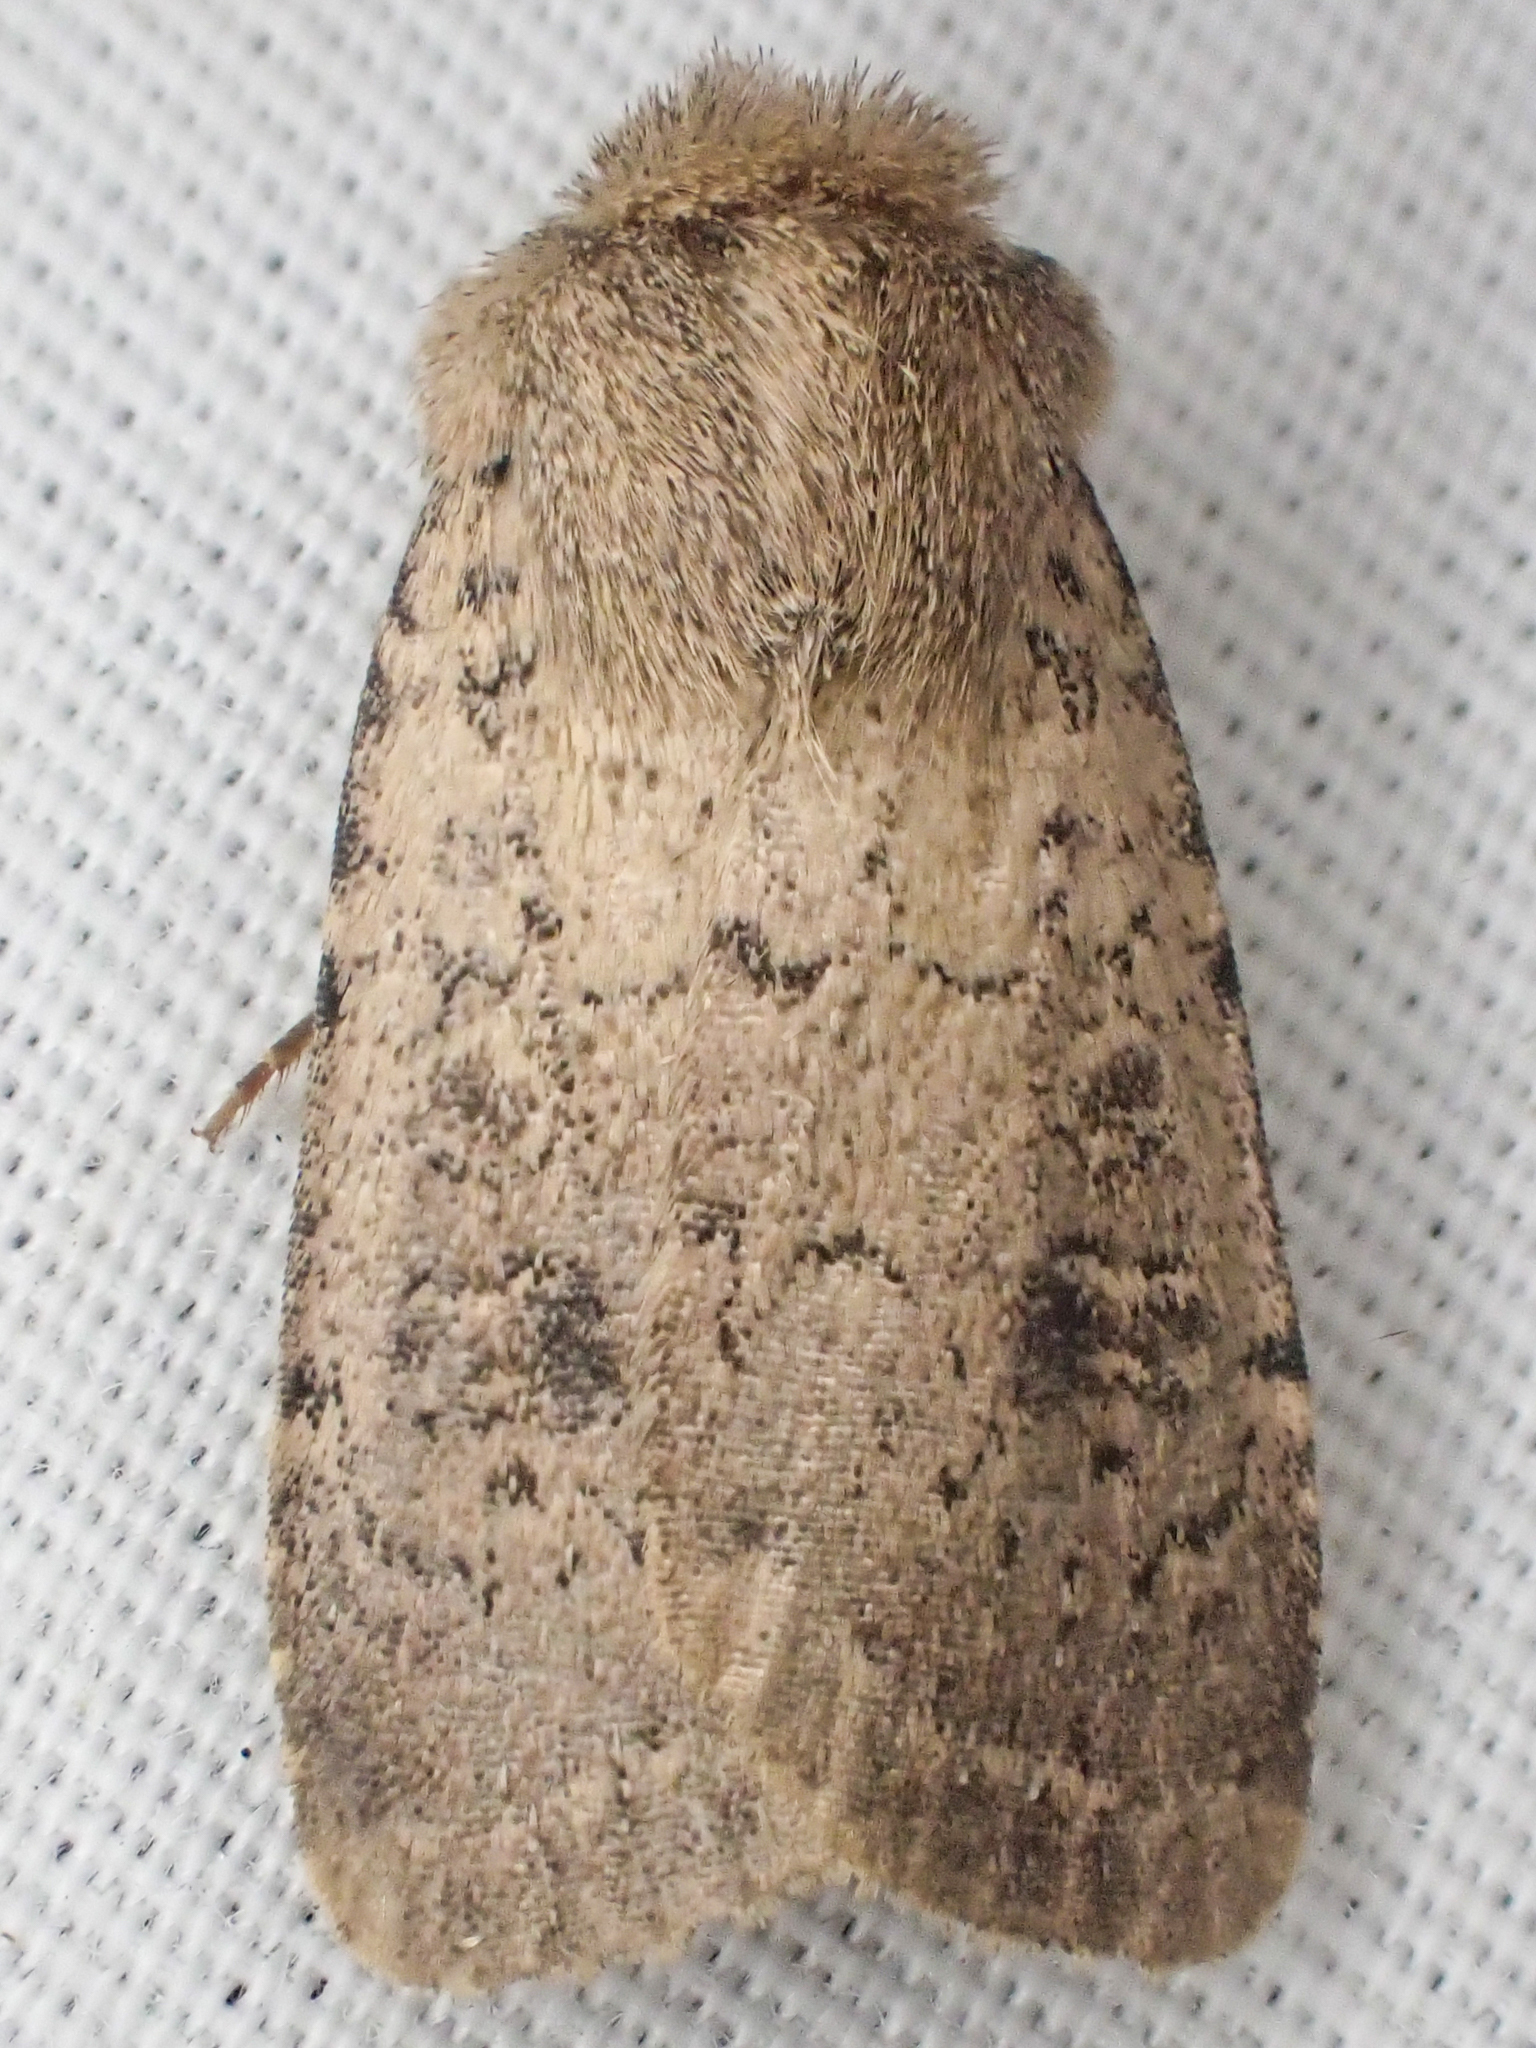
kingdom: Animalia
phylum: Arthropoda
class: Insecta
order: Lepidoptera
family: Noctuidae
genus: Homorthodes
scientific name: Homorthodes communis
